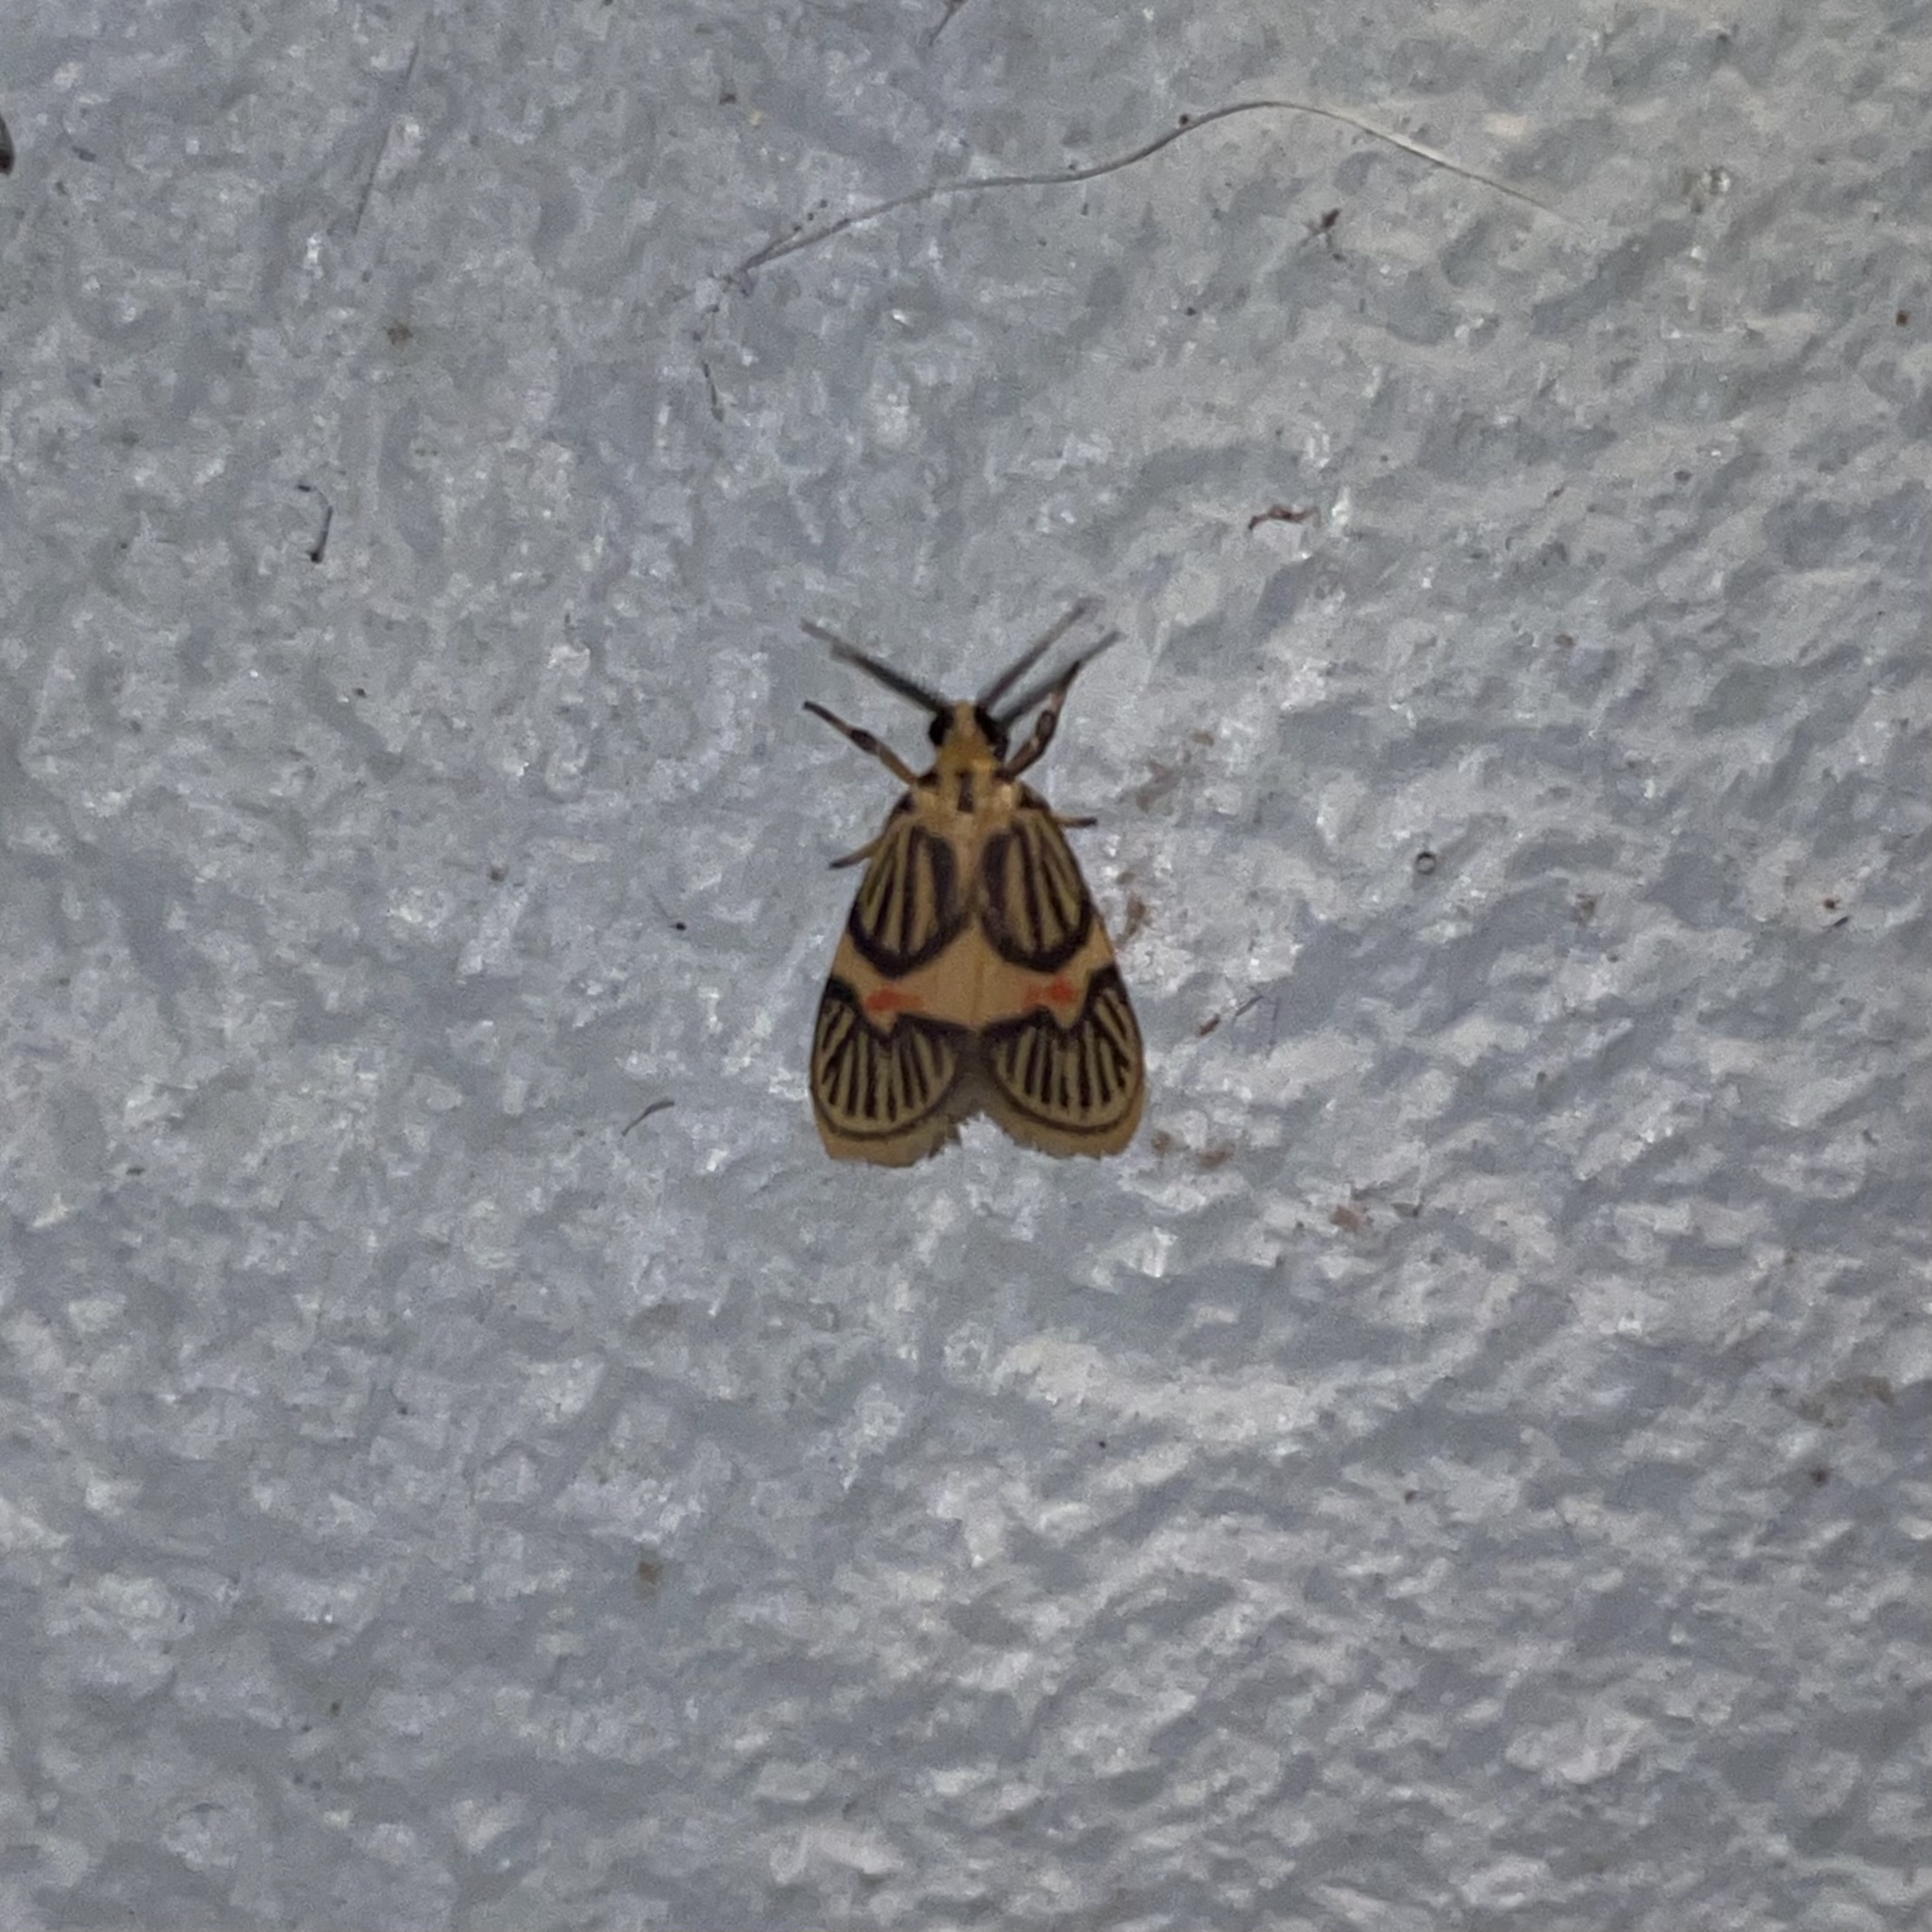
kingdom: Animalia
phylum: Arthropoda
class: Insecta
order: Lepidoptera
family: Erebidae
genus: Prepiella
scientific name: Prepiella pexicera
